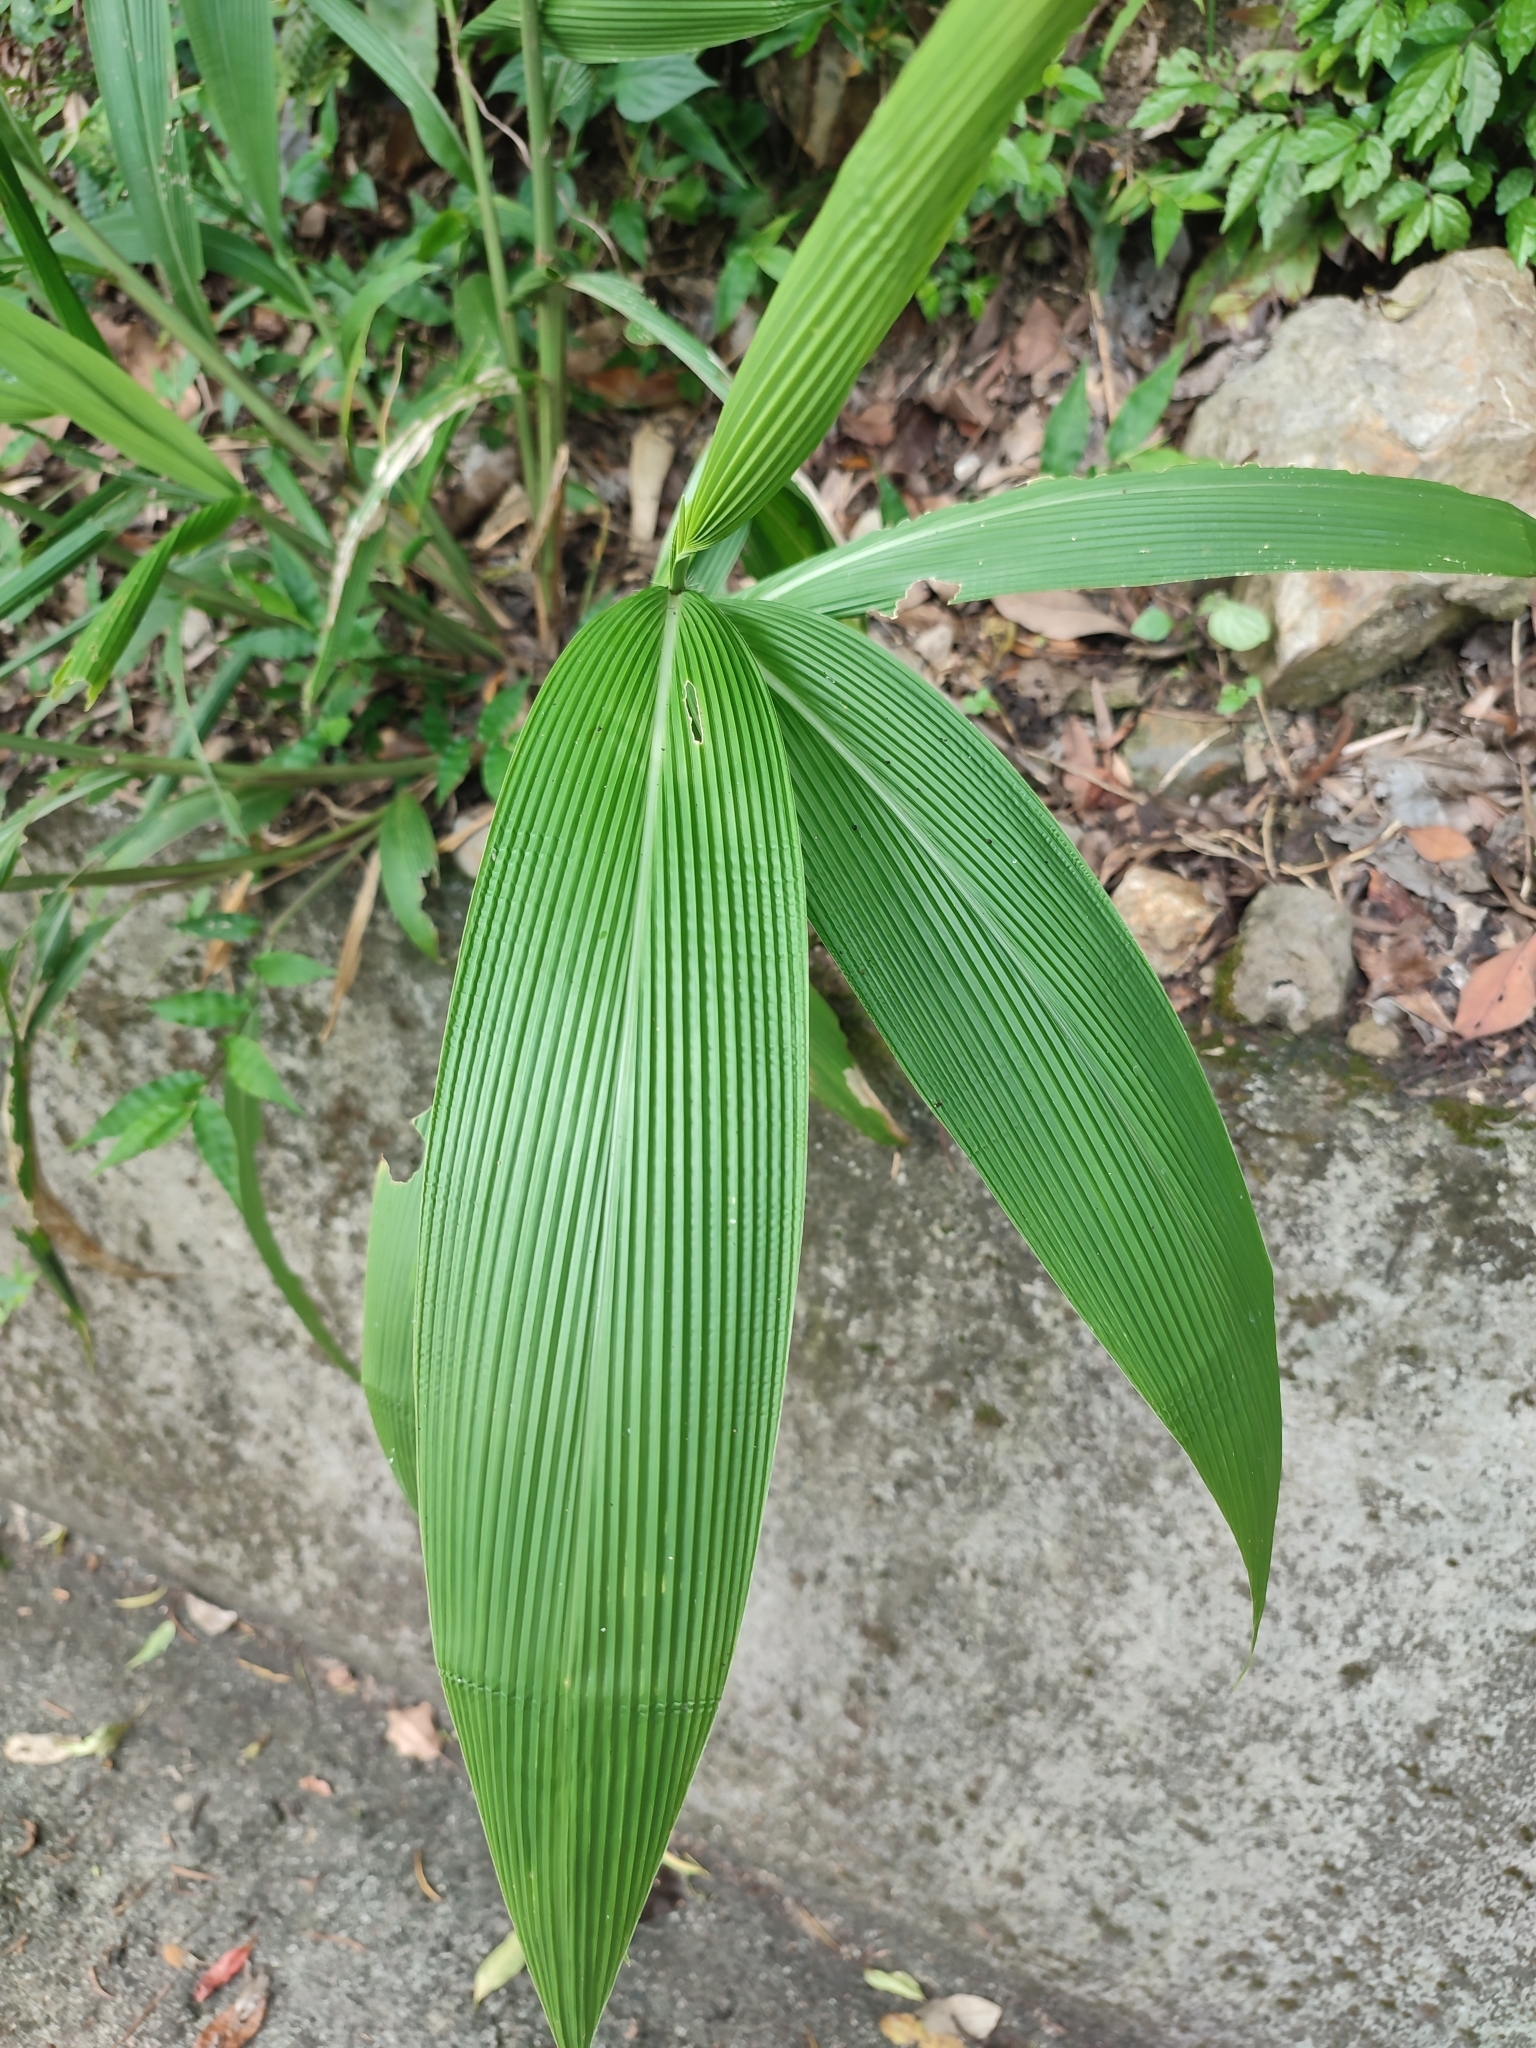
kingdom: Plantae
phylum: Tracheophyta
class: Liliopsida
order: Poales
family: Poaceae
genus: Setaria
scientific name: Setaria palmifolia
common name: Broadleaved bristlegrass
